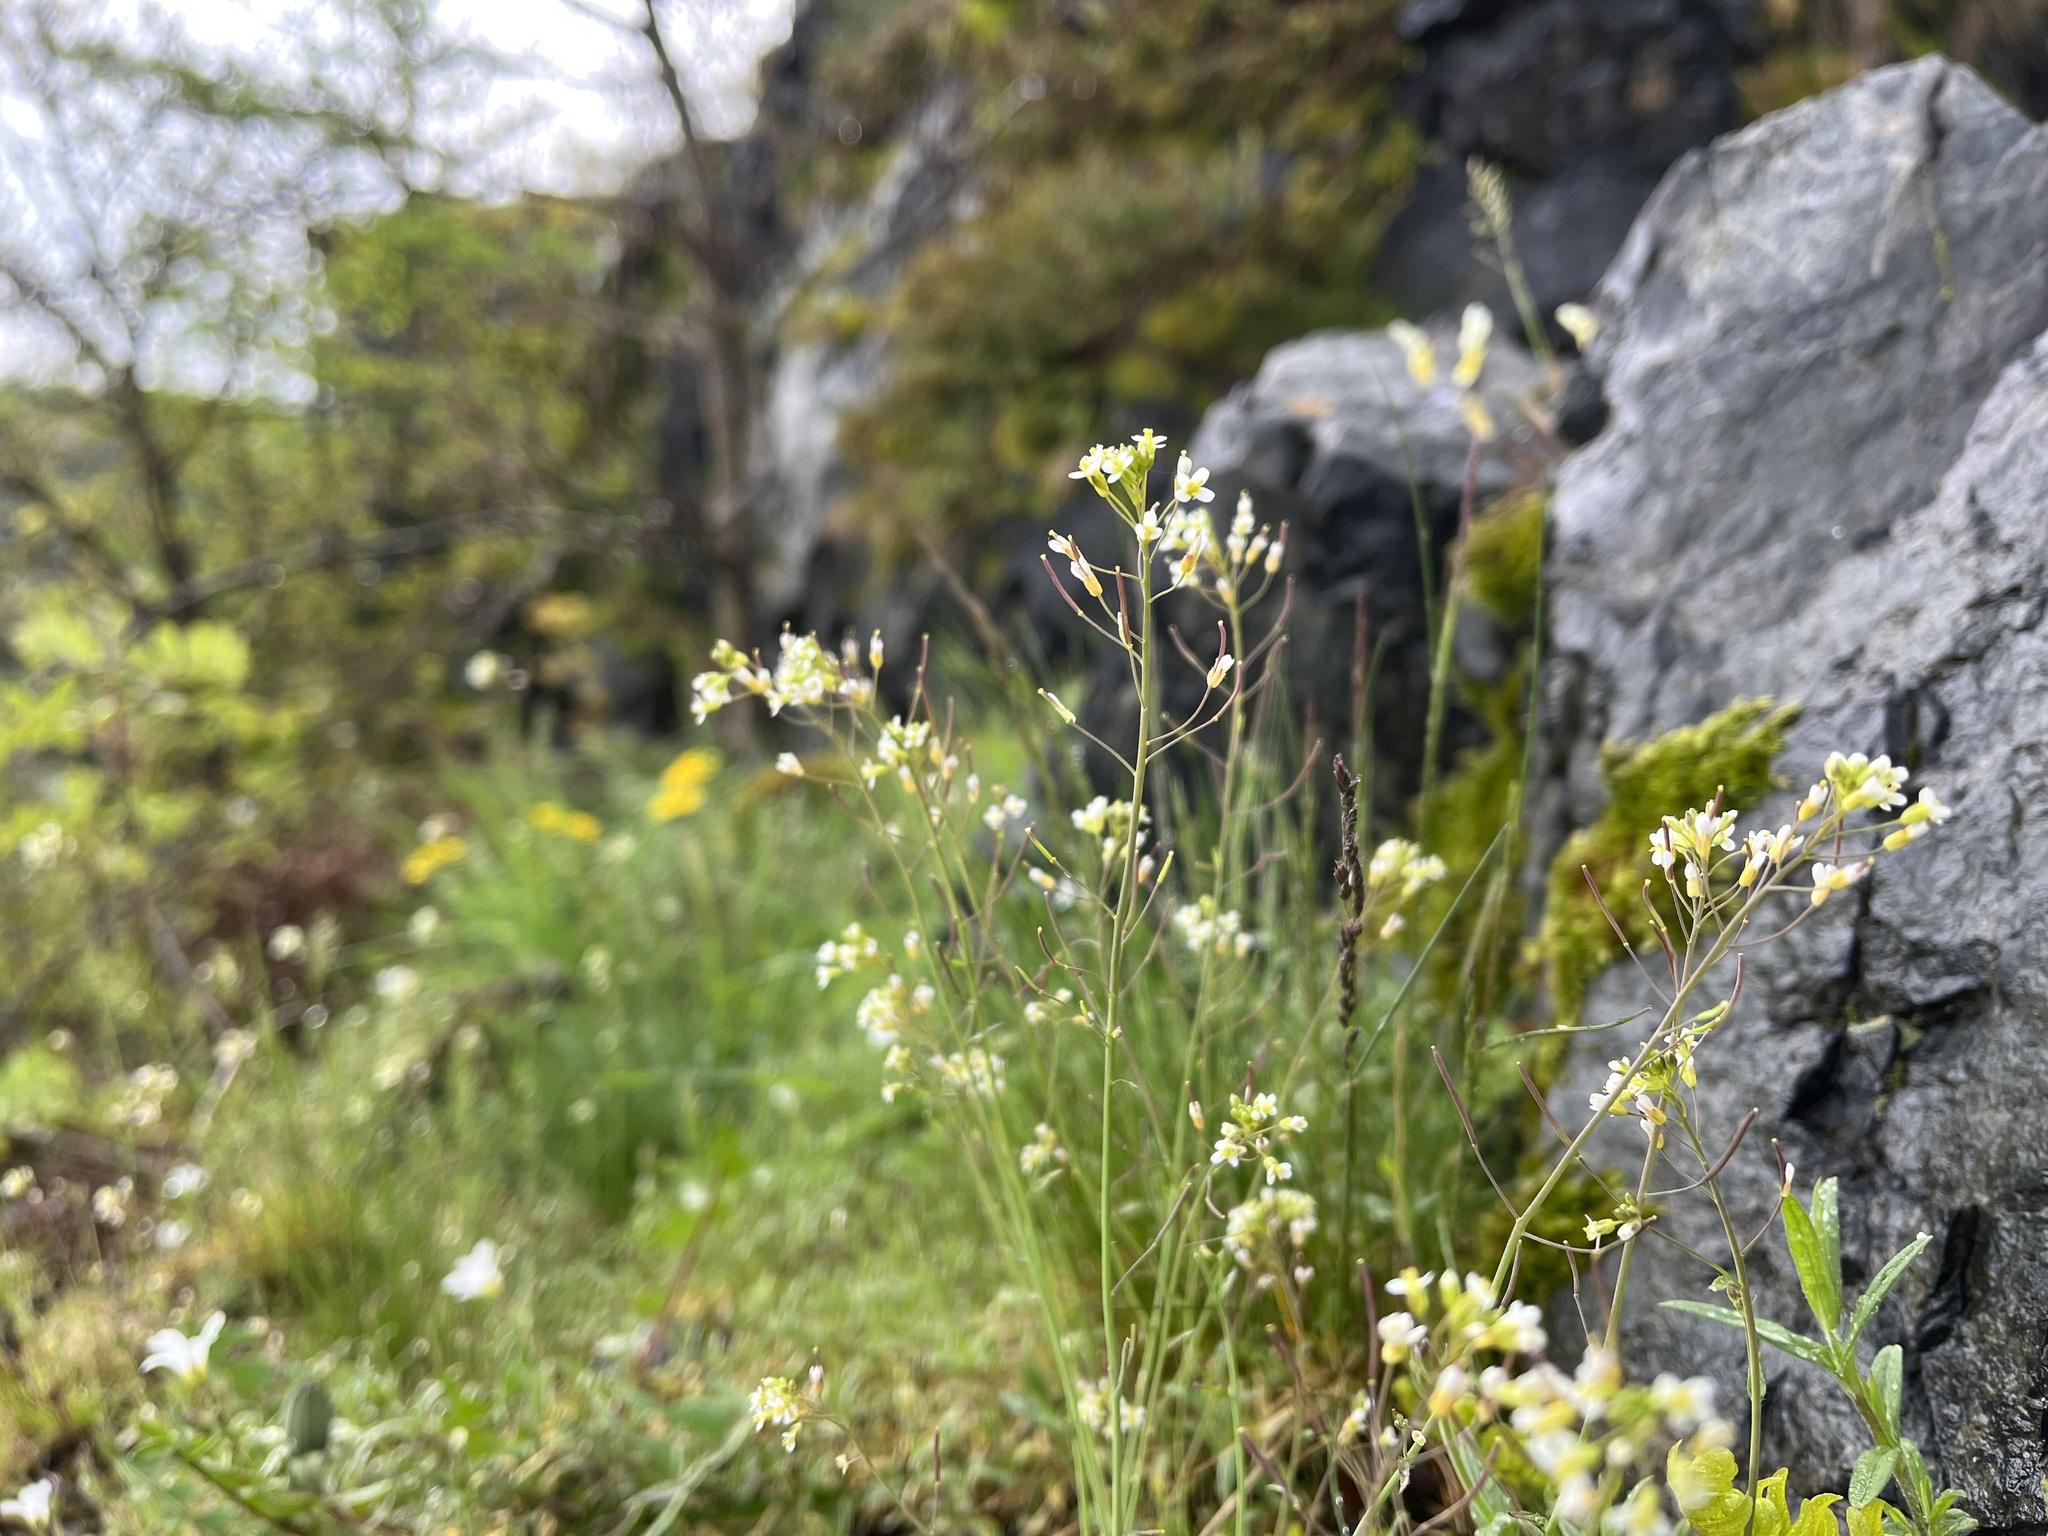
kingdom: Plantae
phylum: Tracheophyta
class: Magnoliopsida
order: Brassicales
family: Brassicaceae
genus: Arabidopsis
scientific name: Arabidopsis thaliana
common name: Thale cress
